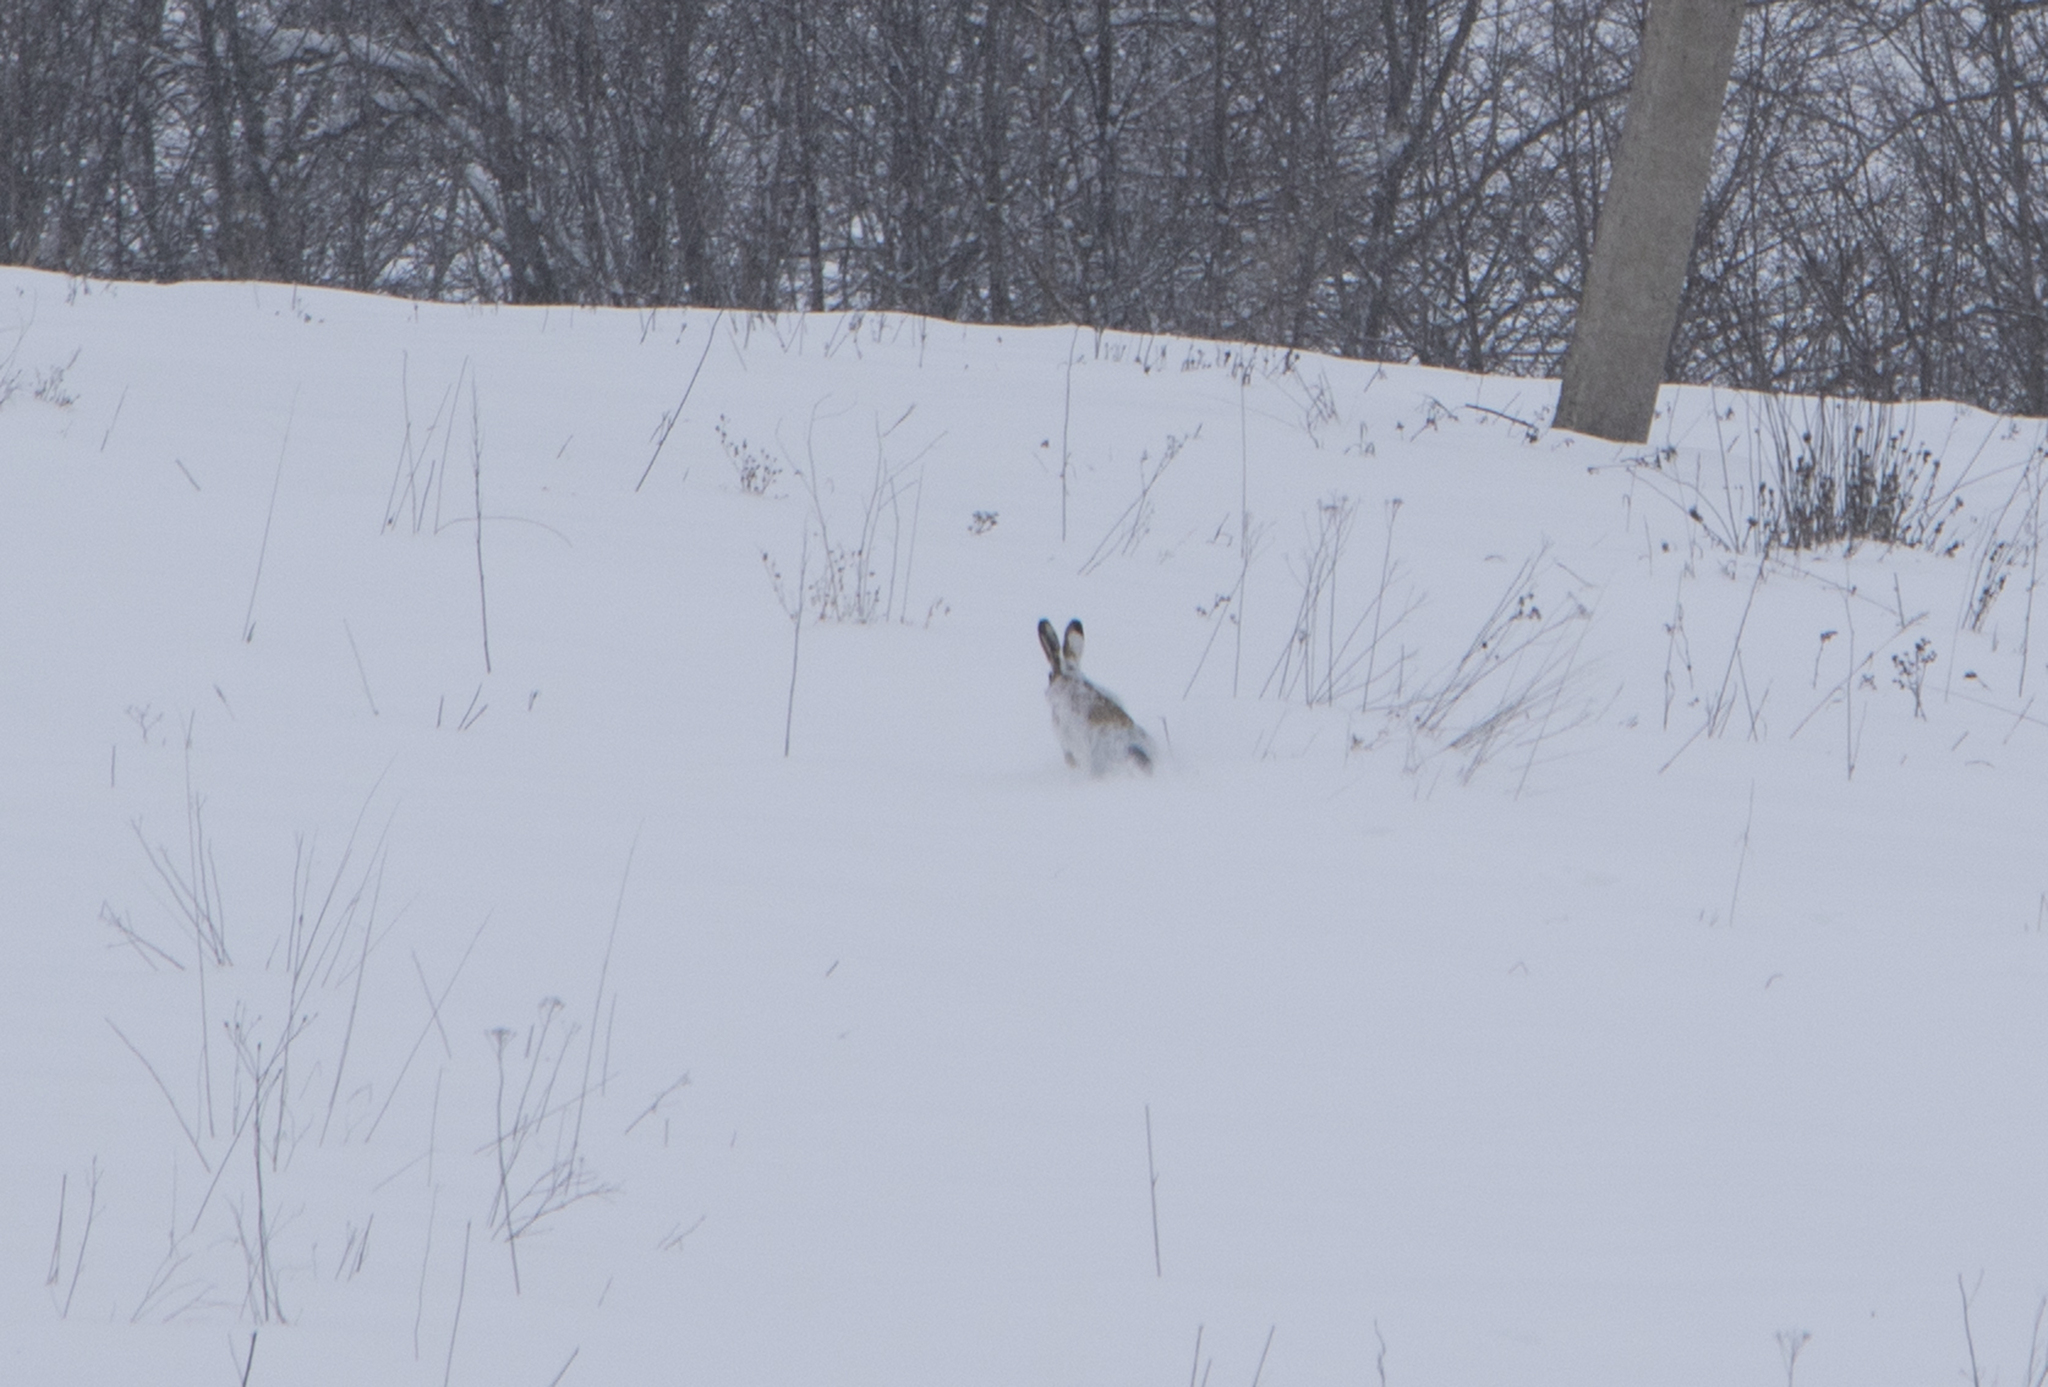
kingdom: Animalia
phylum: Chordata
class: Mammalia
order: Lagomorpha
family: Leporidae
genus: Lepus
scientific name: Lepus timidus
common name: Mountain hare
